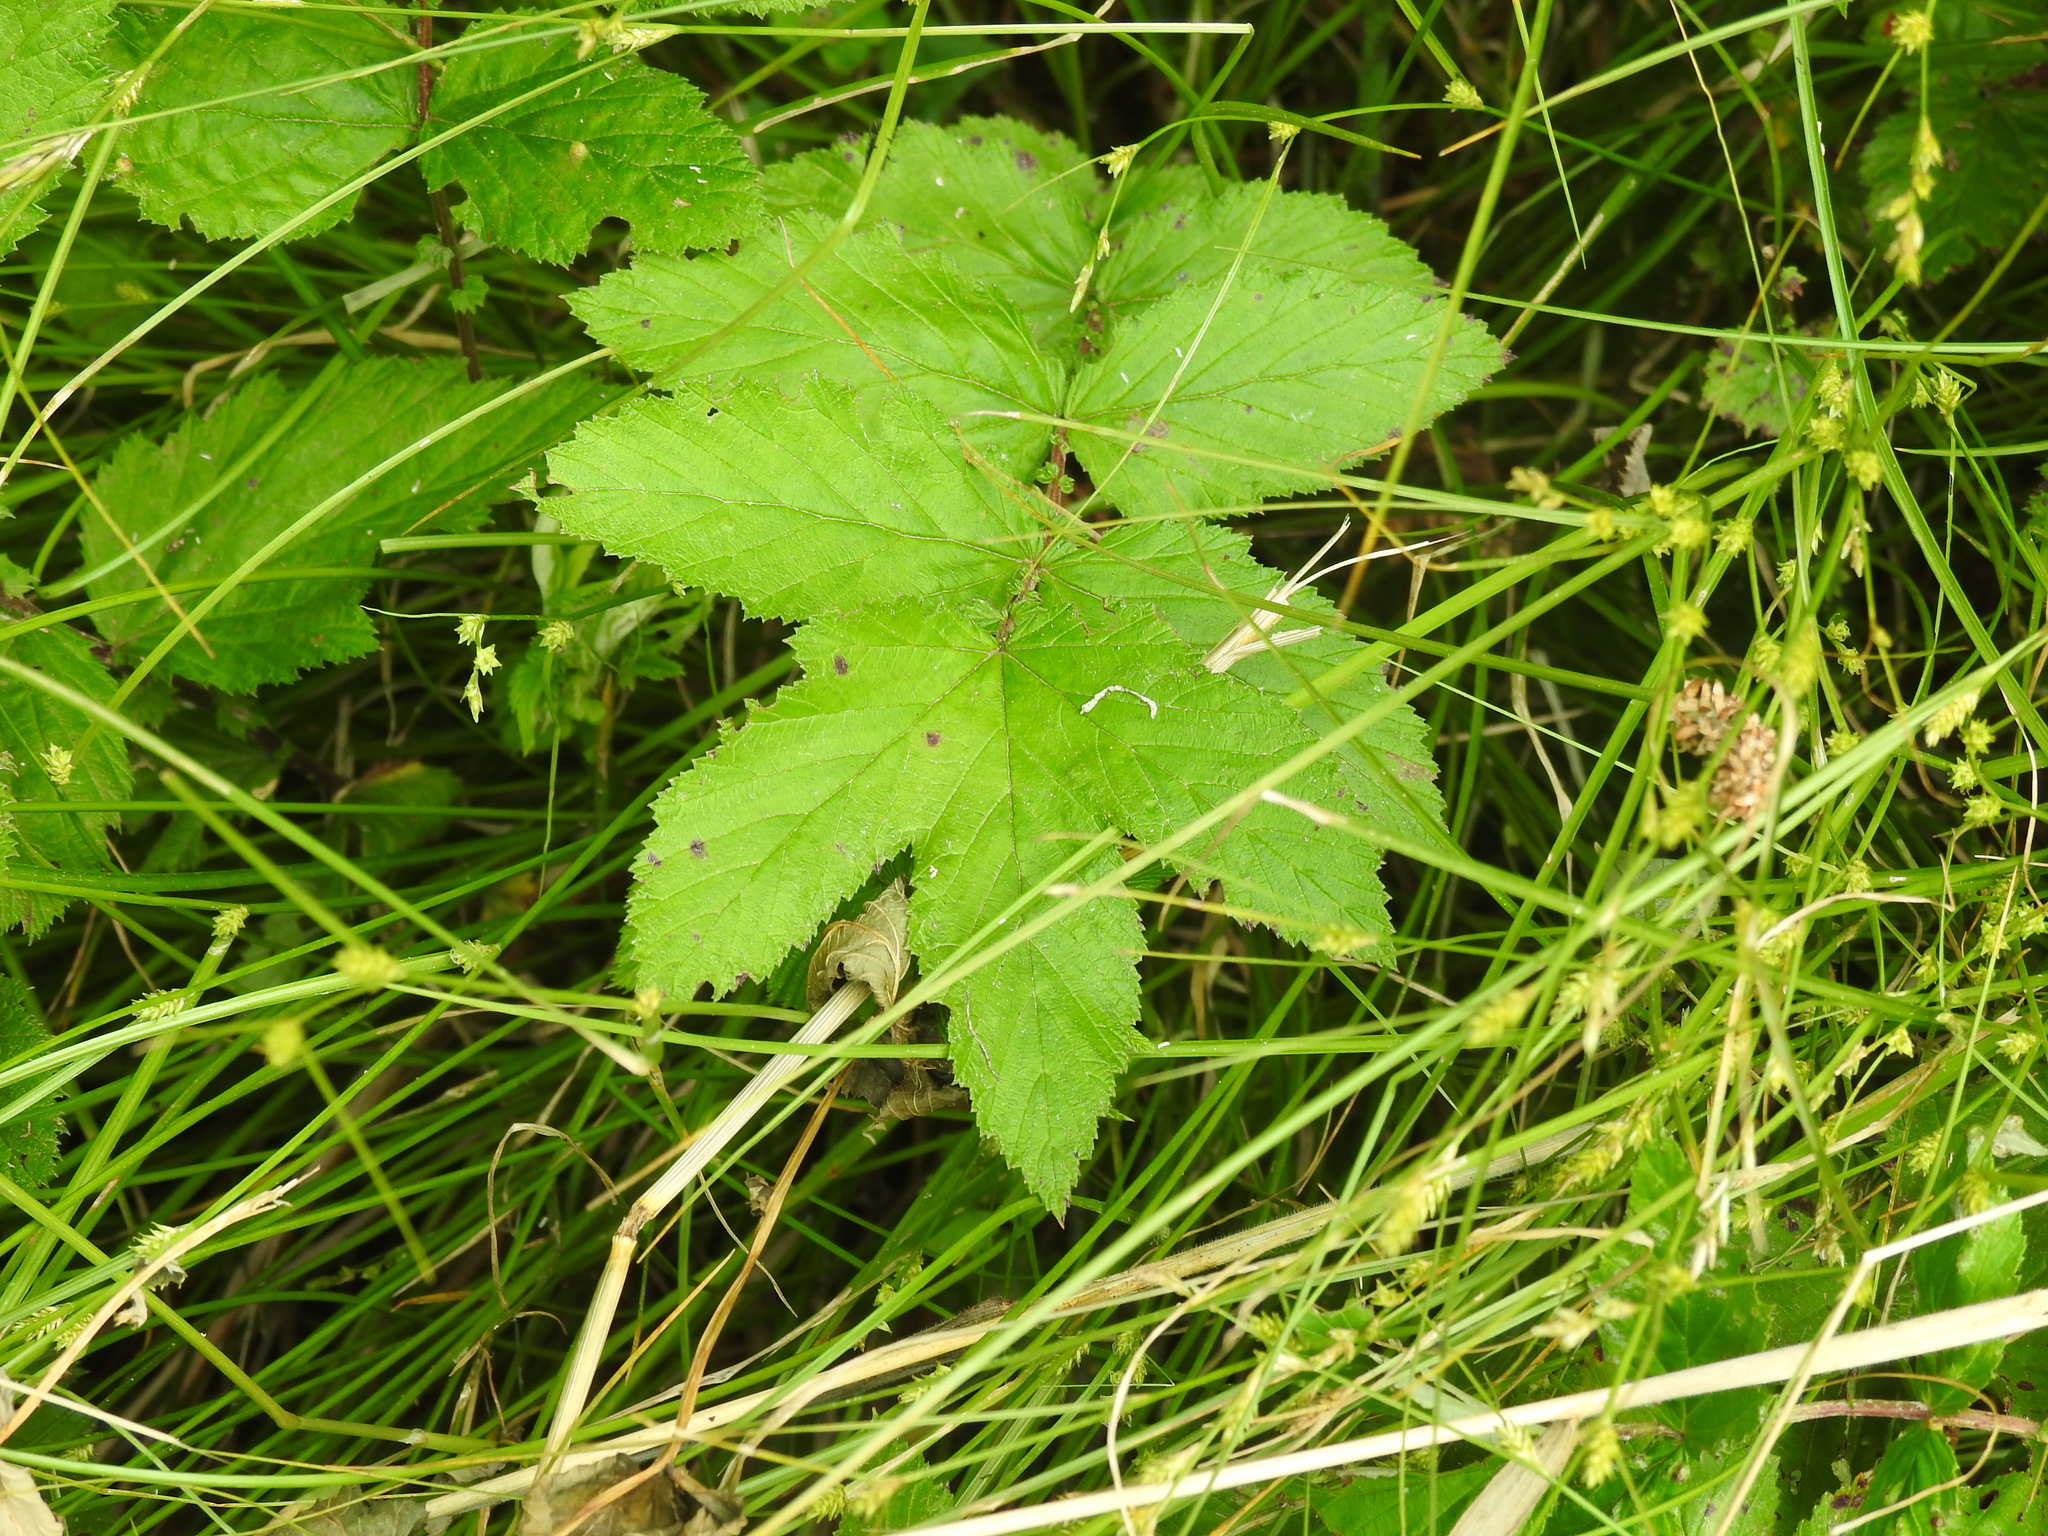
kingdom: Plantae
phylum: Tracheophyta
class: Magnoliopsida
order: Rosales
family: Rosaceae
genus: Filipendula
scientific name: Filipendula ulmaria
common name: Meadowsweet
